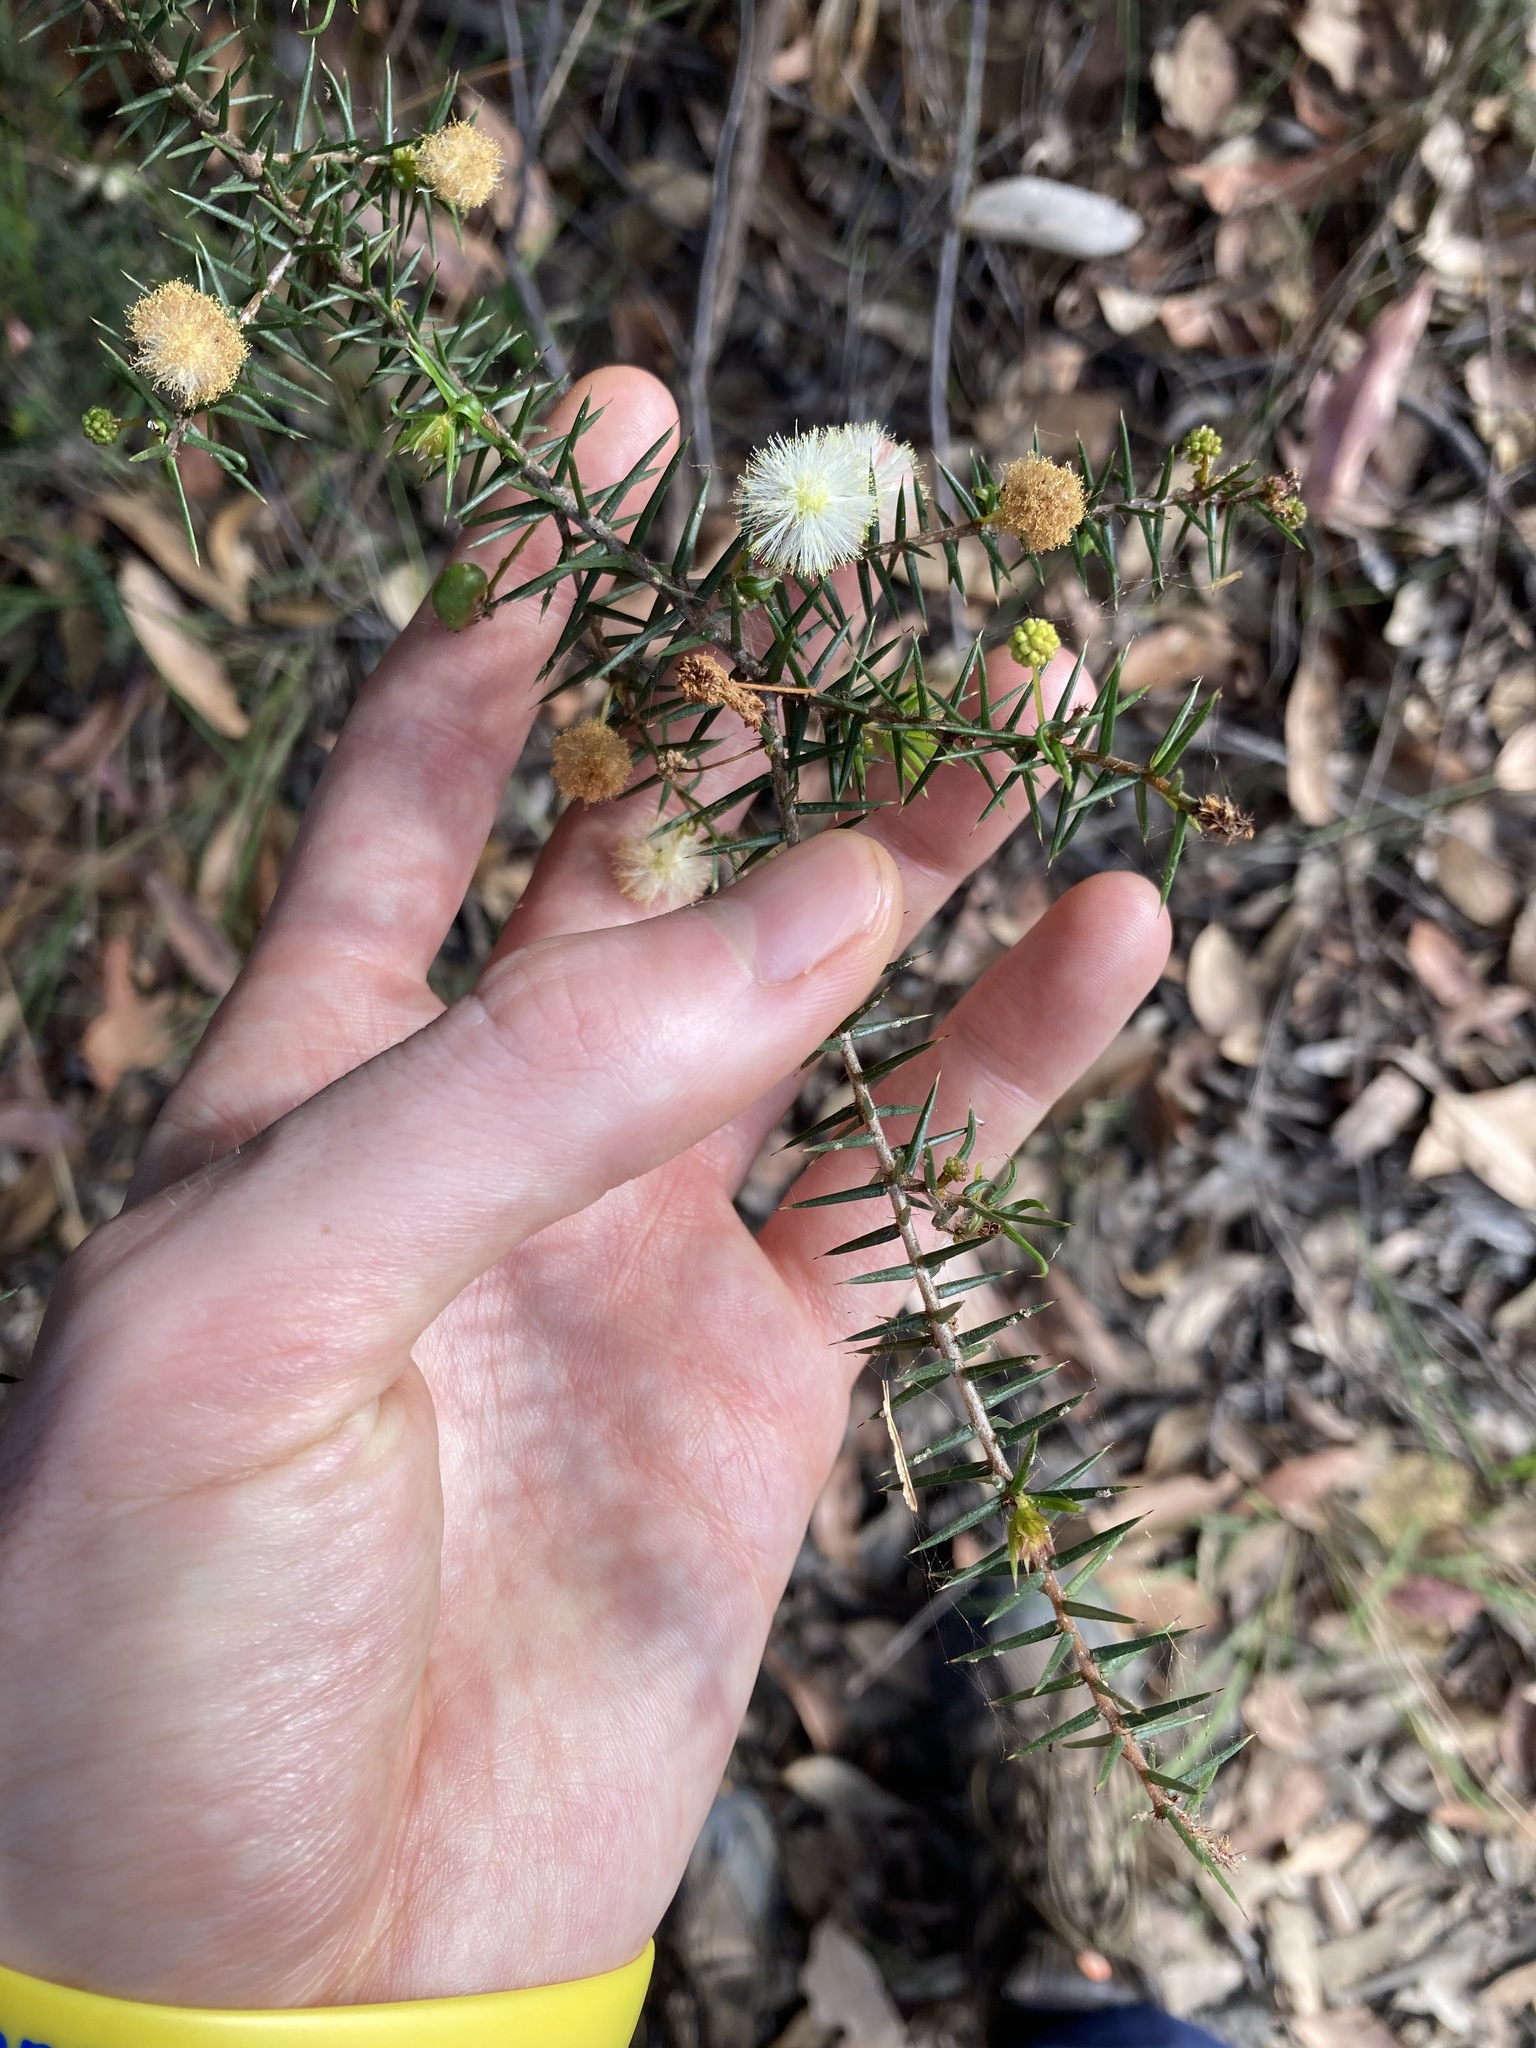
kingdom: Plantae
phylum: Tracheophyta
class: Magnoliopsida
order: Fabales
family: Fabaceae
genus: Acacia
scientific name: Acacia ulicifolia
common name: Juniper wattle
